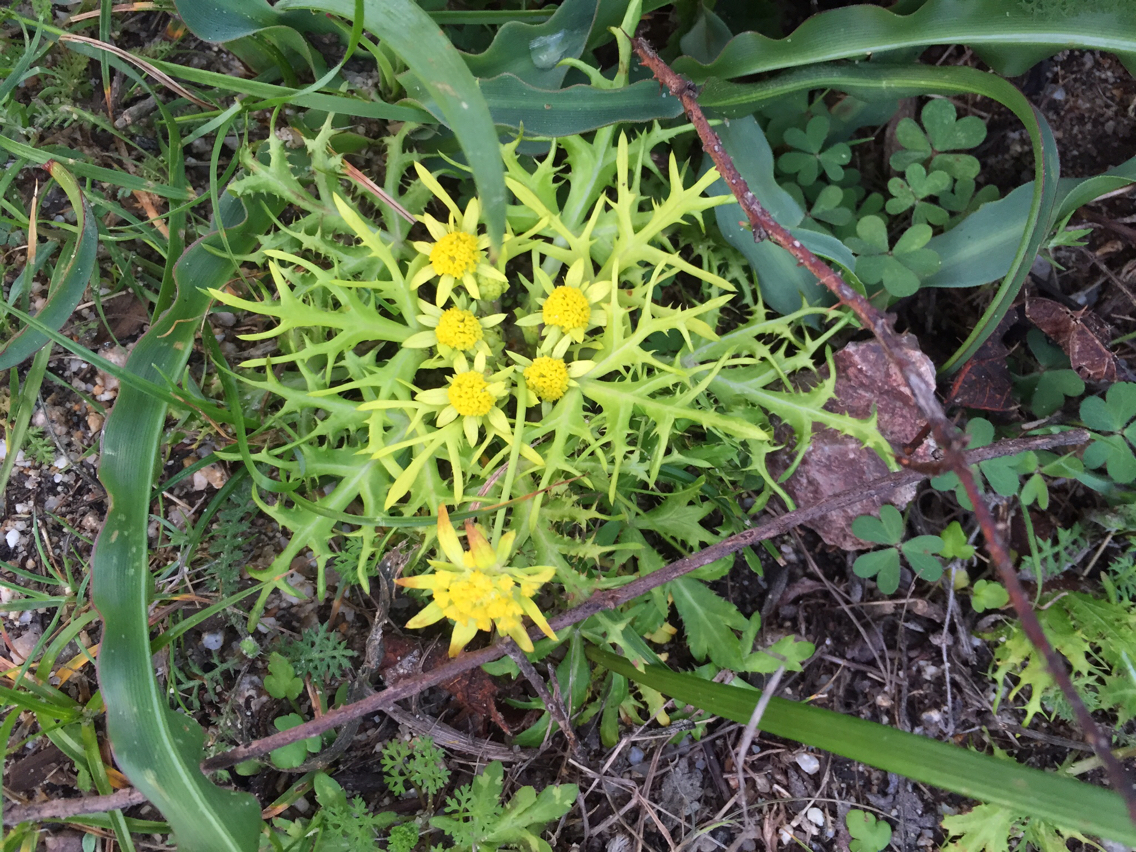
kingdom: Plantae
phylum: Tracheophyta
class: Magnoliopsida
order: Apiales
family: Apiaceae
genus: Sanicula
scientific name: Sanicula arctopoides
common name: Footsteps-of-spring
